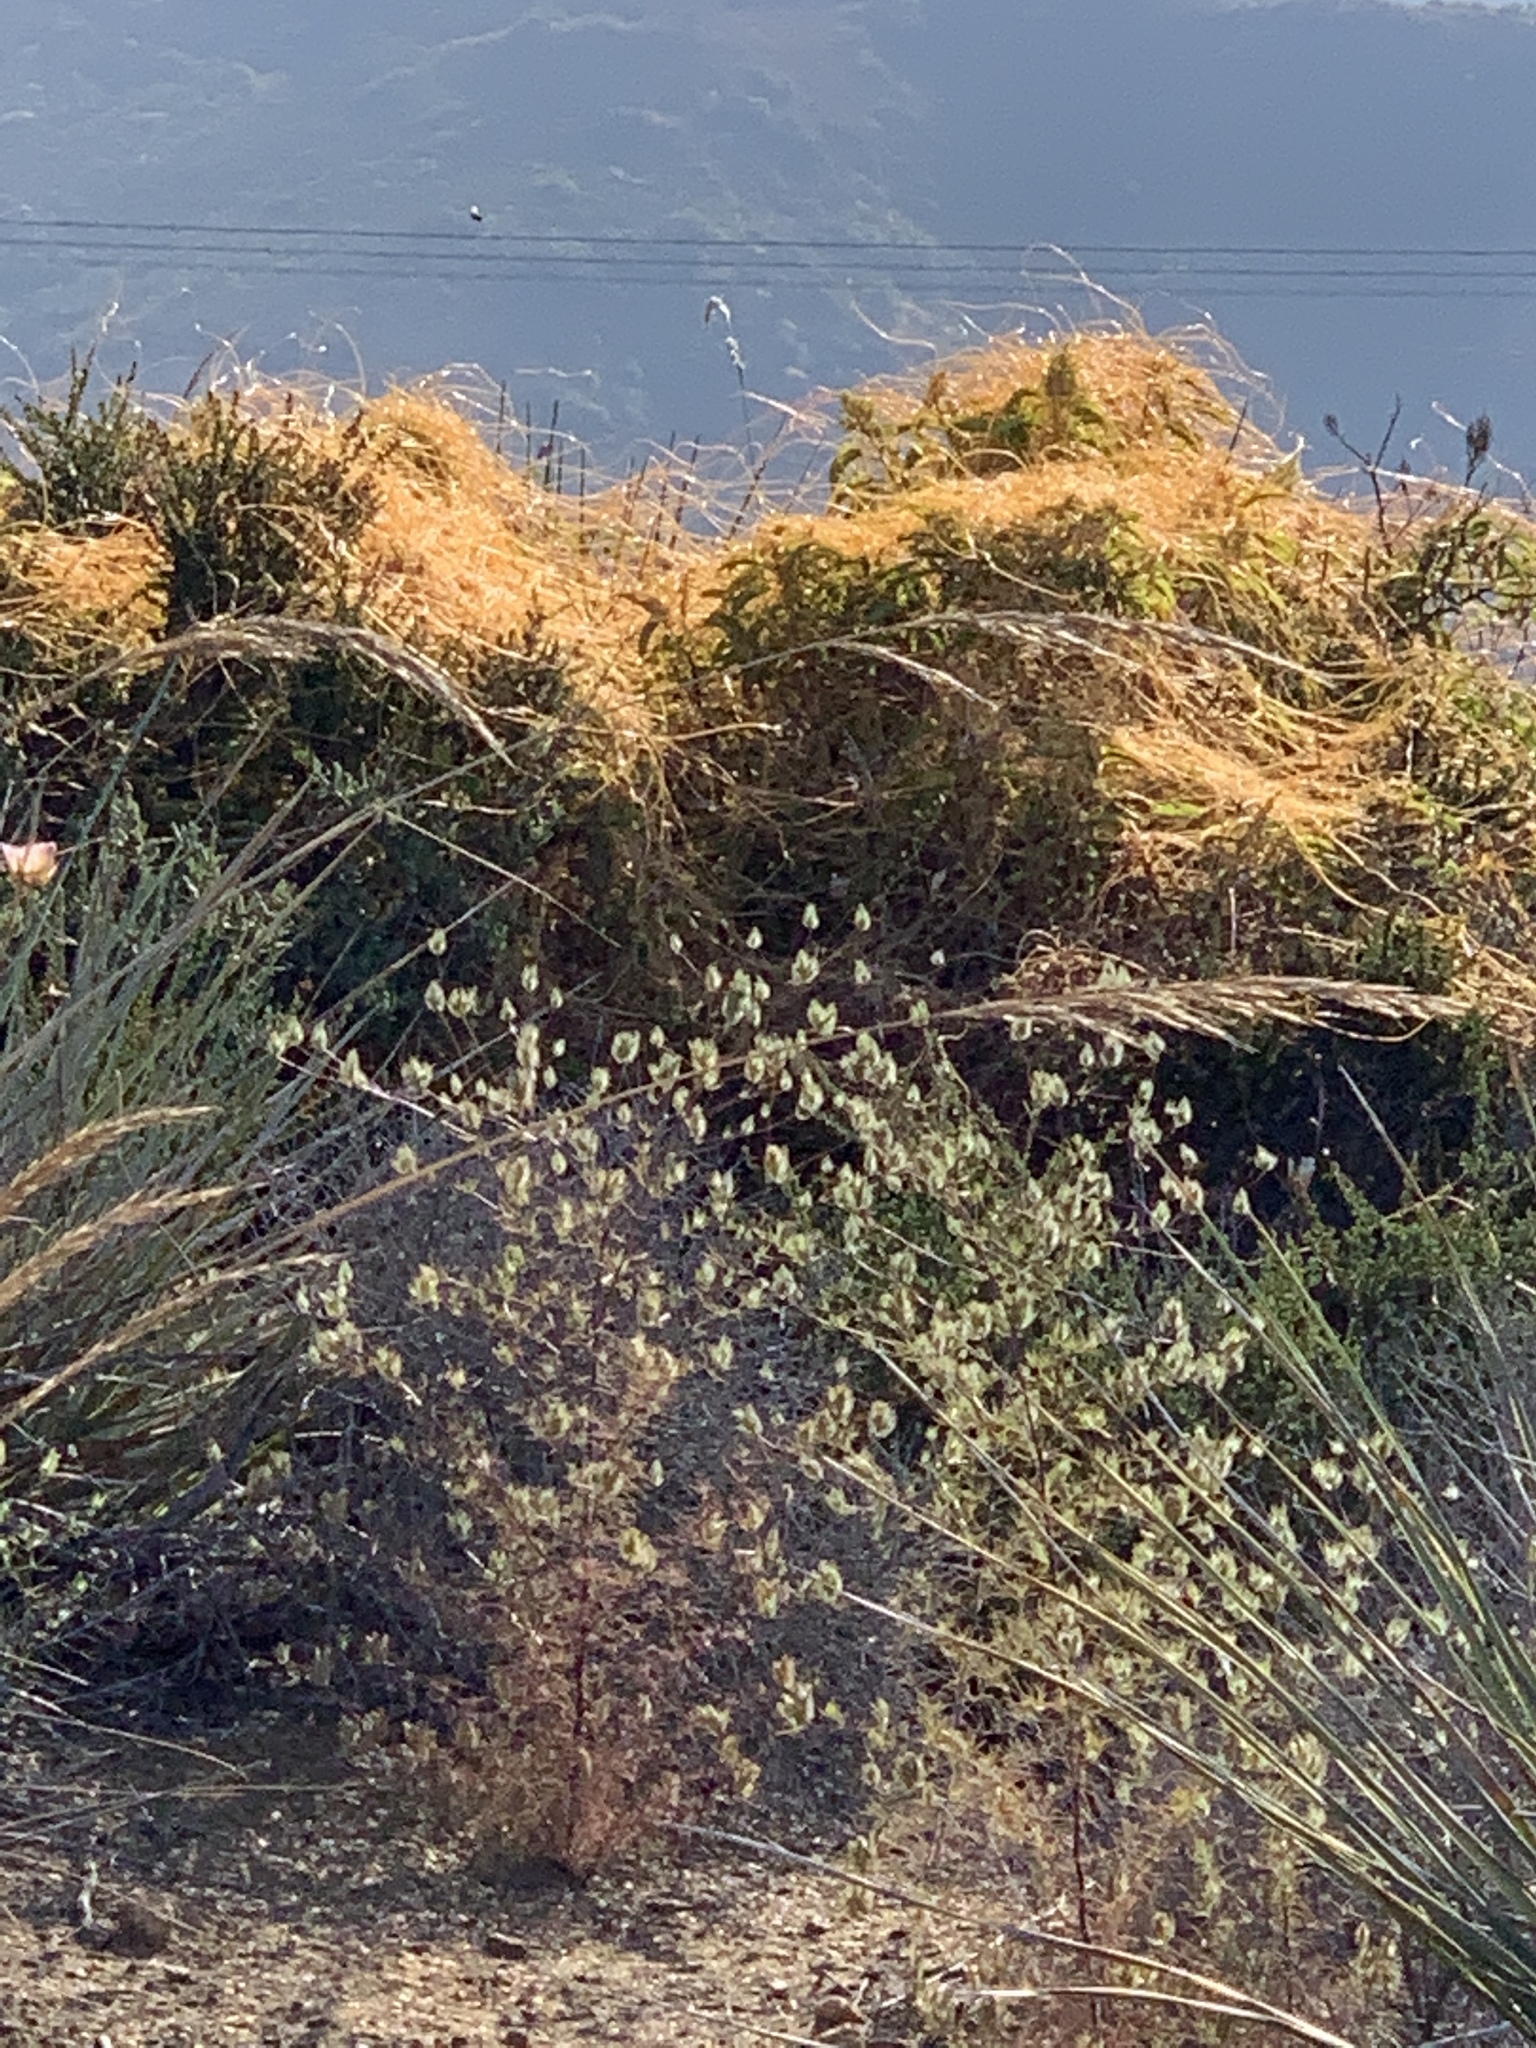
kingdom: Plantae
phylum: Tracheophyta
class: Magnoliopsida
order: Solanales
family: Convolvulaceae
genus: Cuscuta
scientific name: Cuscuta californica
